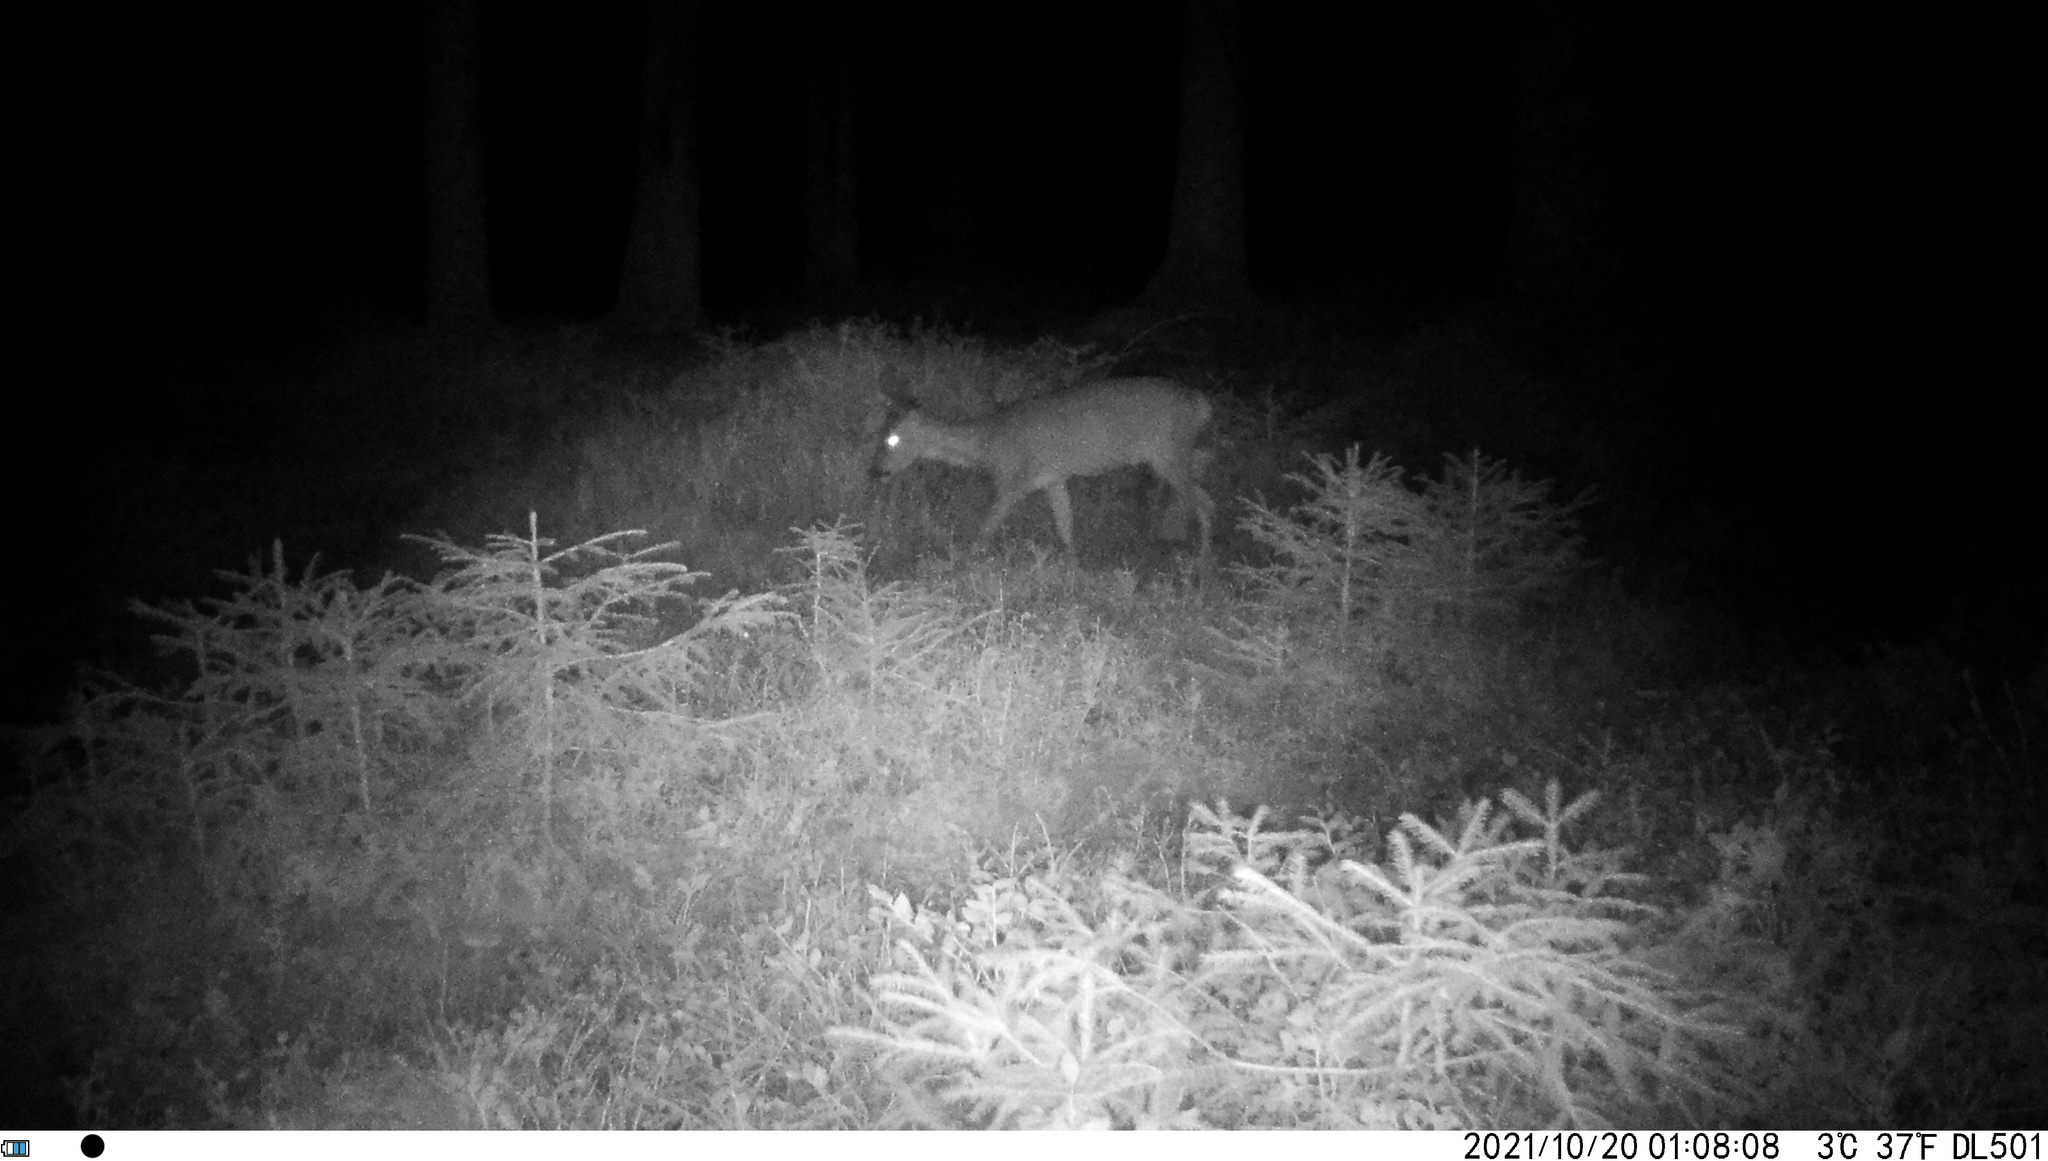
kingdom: Animalia
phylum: Chordata
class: Mammalia
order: Artiodactyla
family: Cervidae
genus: Capreolus
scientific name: Capreolus capreolus
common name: Western roe deer
